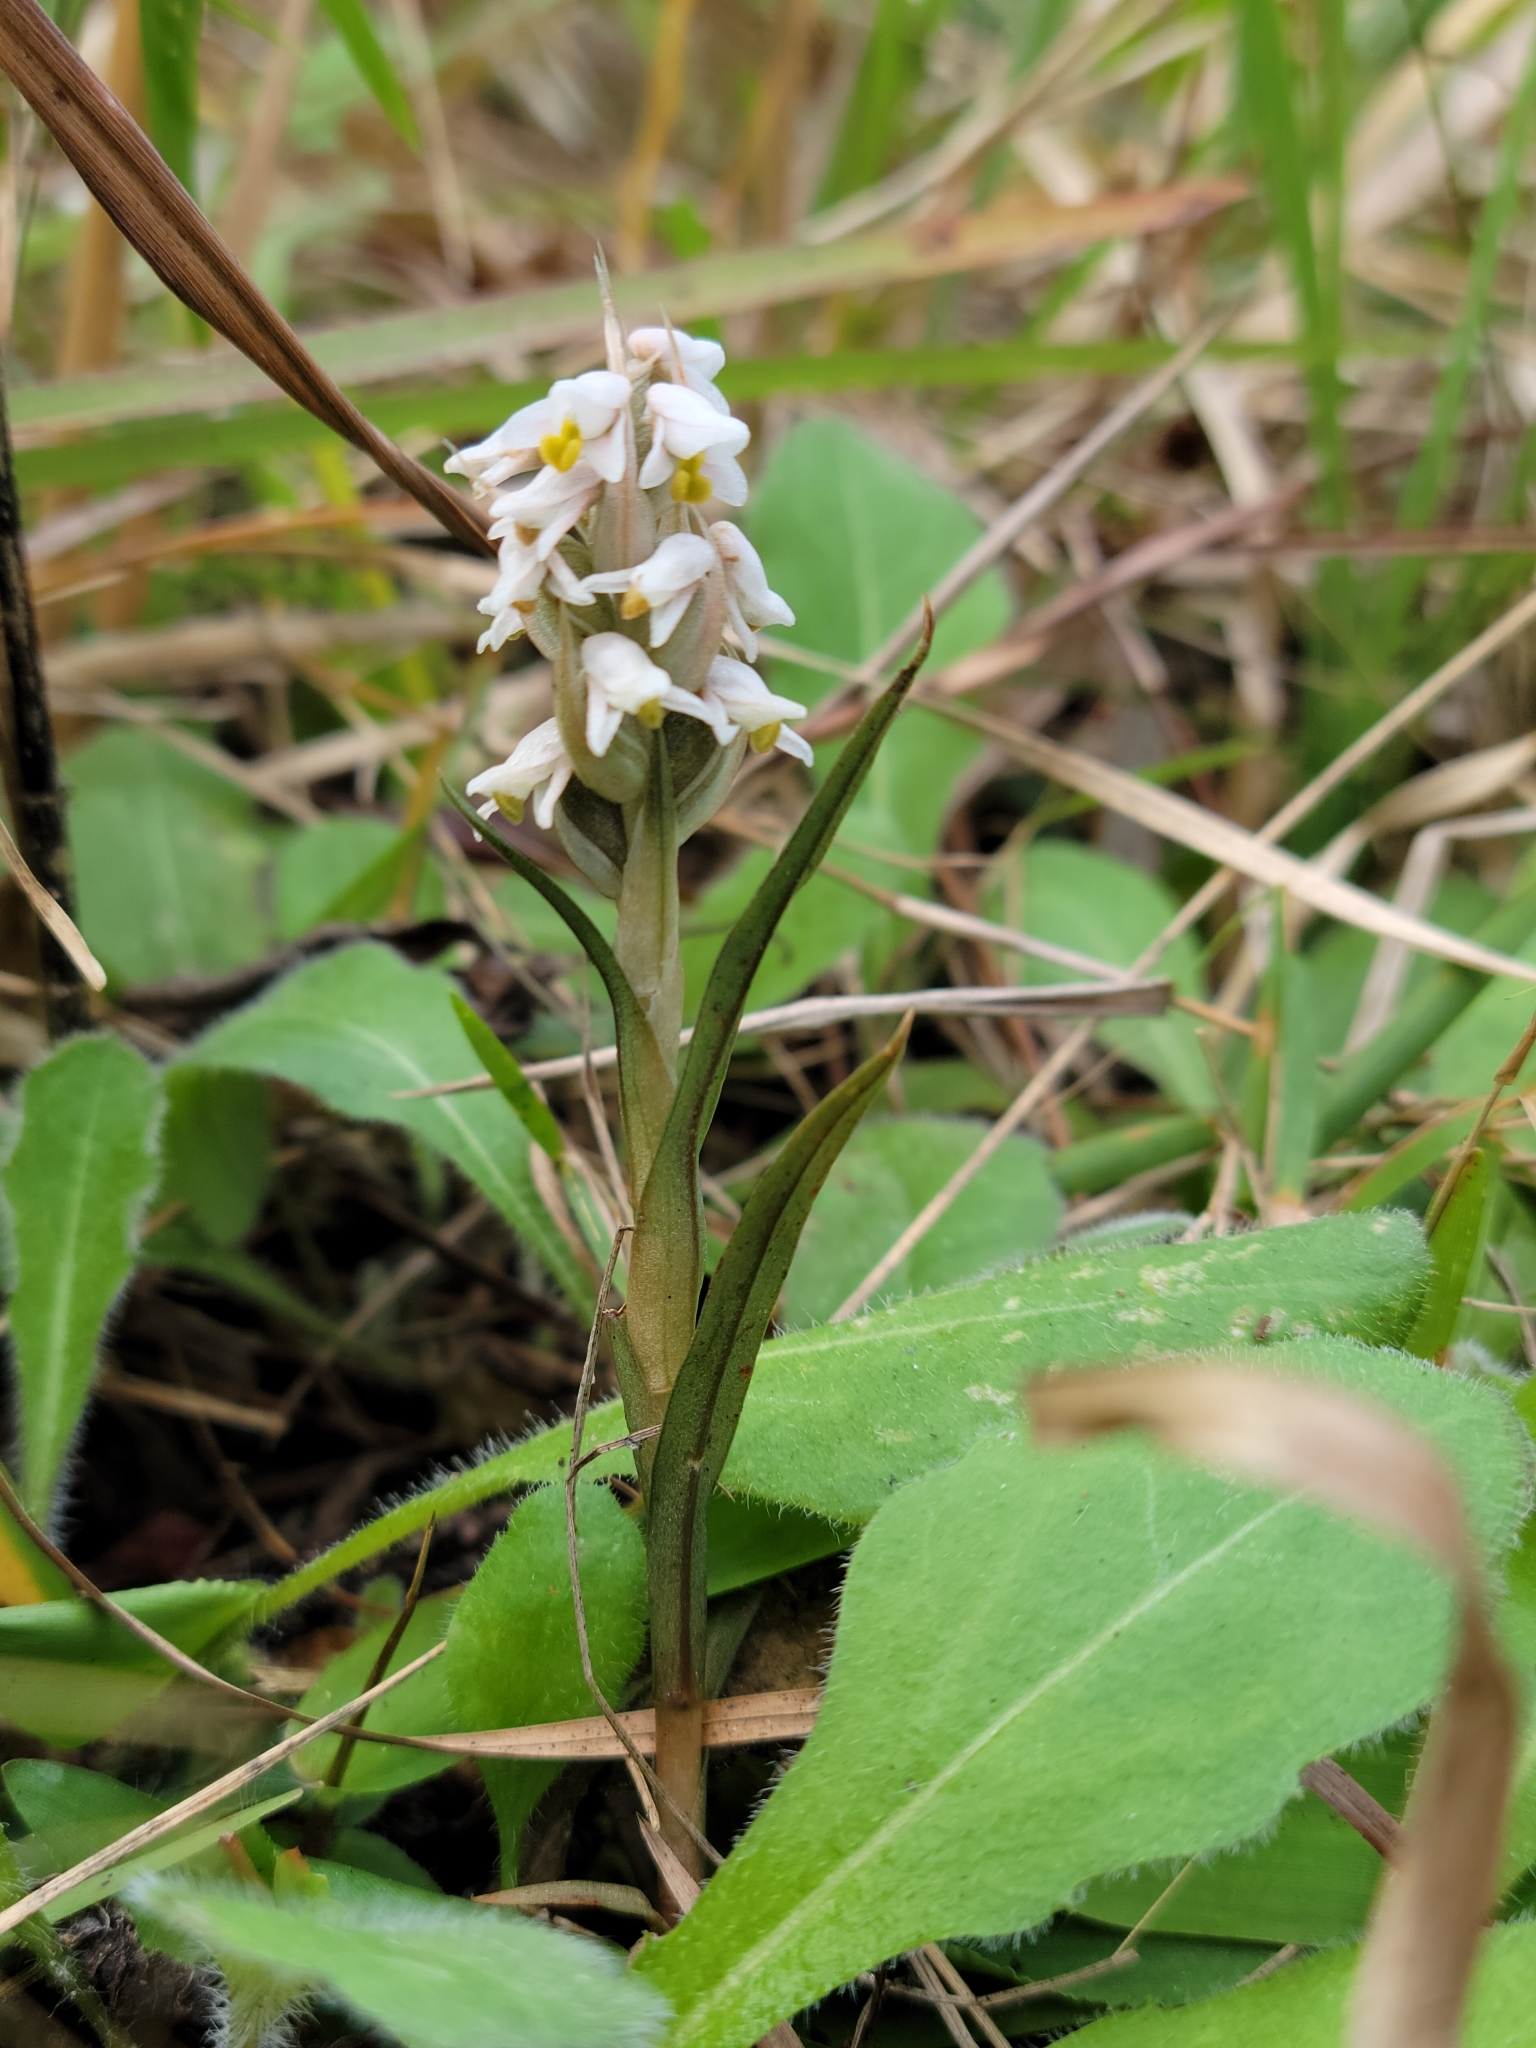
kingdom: Plantae
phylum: Tracheophyta
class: Liliopsida
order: Asparagales
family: Orchidaceae
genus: Zeuxine
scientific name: Zeuxine strateumatica
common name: Soldier's orchid
